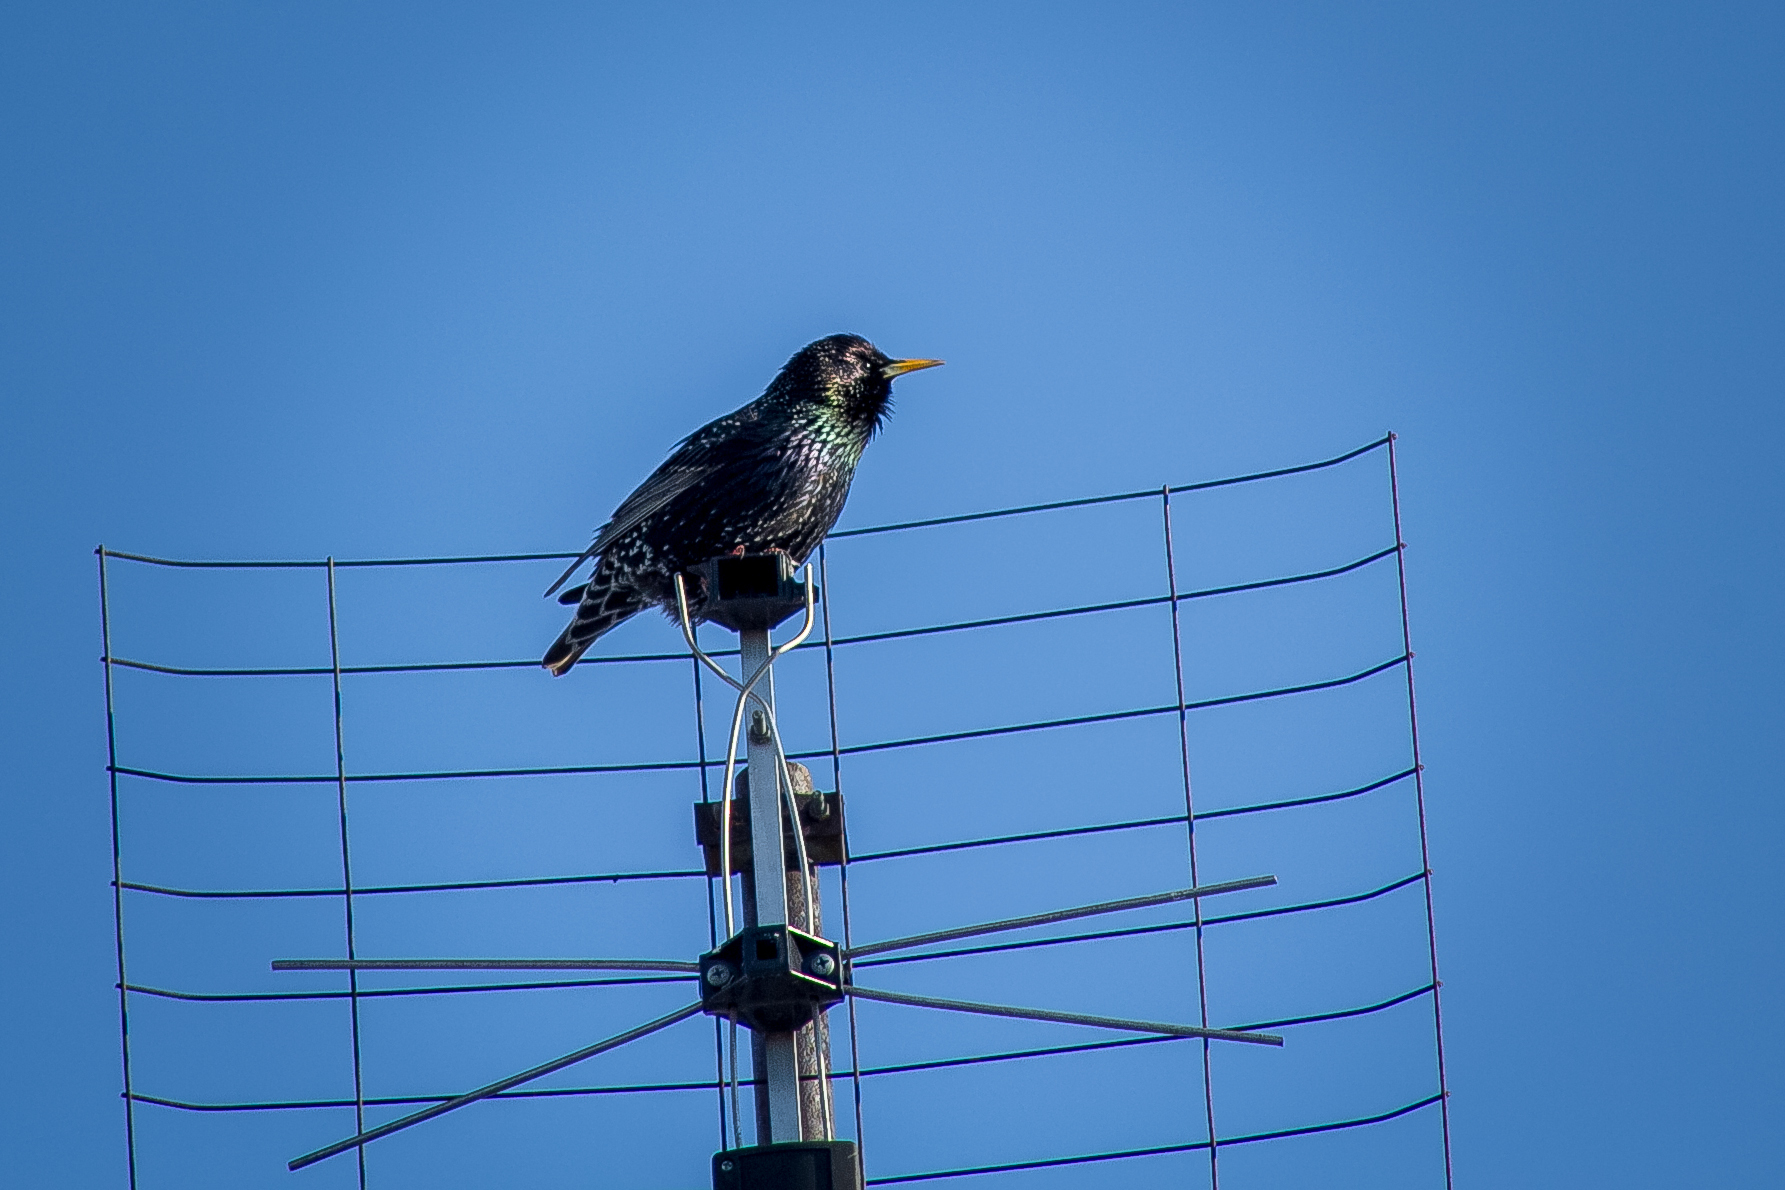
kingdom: Animalia
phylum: Chordata
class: Aves
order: Passeriformes
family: Sturnidae
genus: Sturnus
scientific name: Sturnus vulgaris
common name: Common starling
